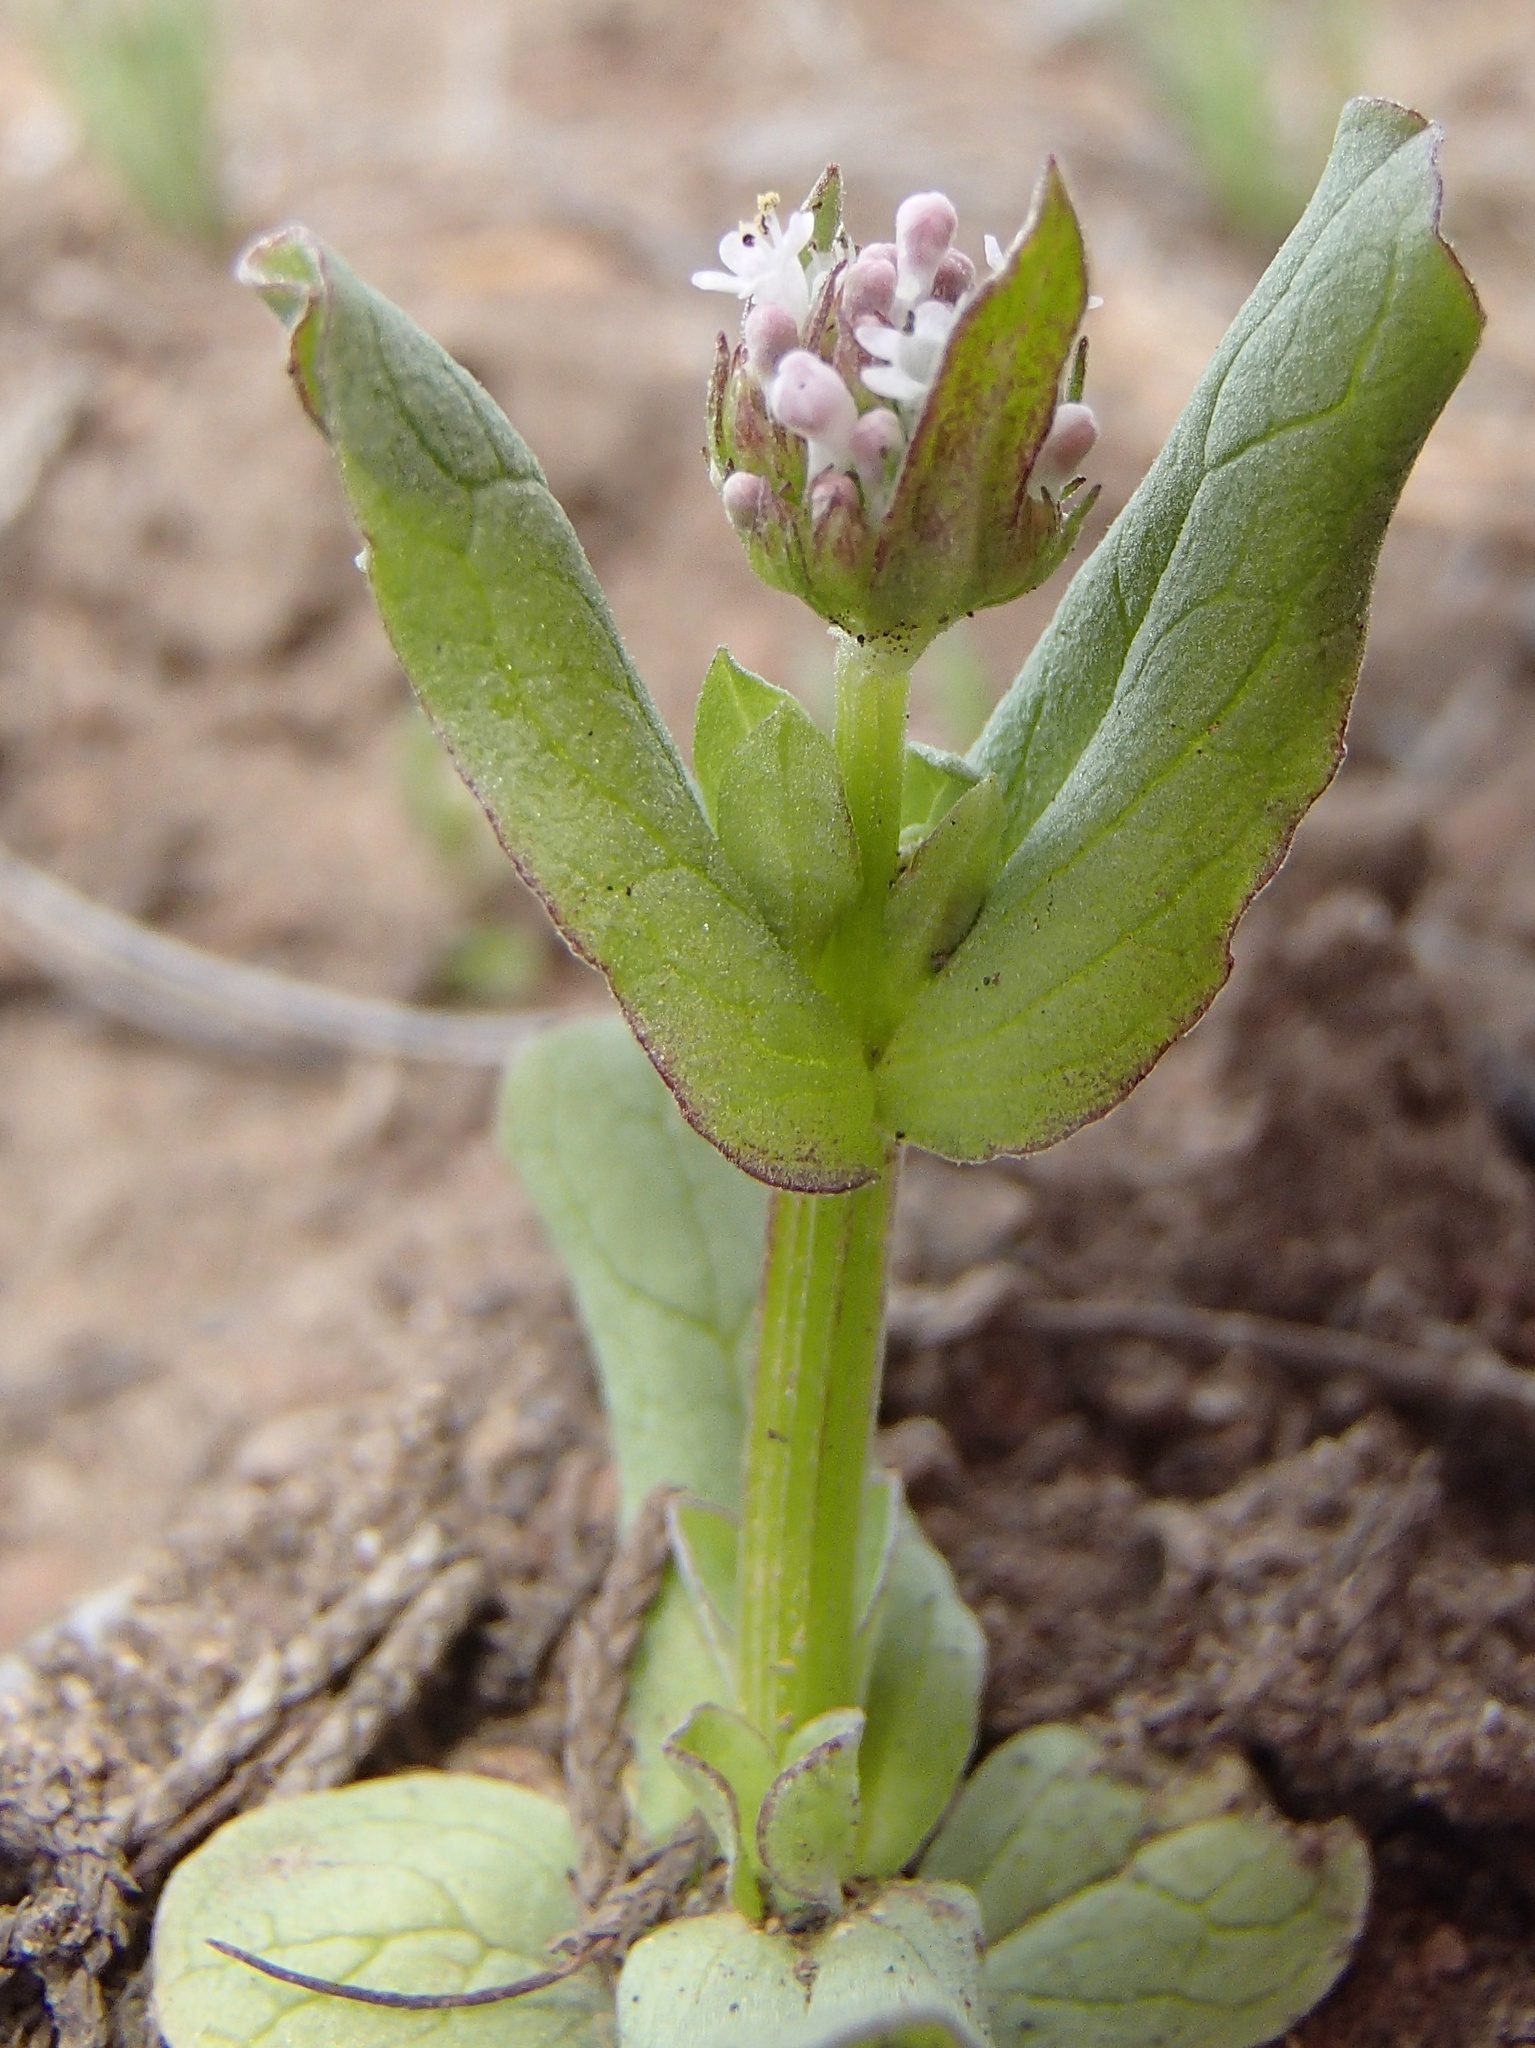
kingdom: Plantae
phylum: Tracheophyta
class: Magnoliopsida
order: Dipsacales
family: Caprifoliaceae
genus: Plectritis
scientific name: Plectritis macroptera
